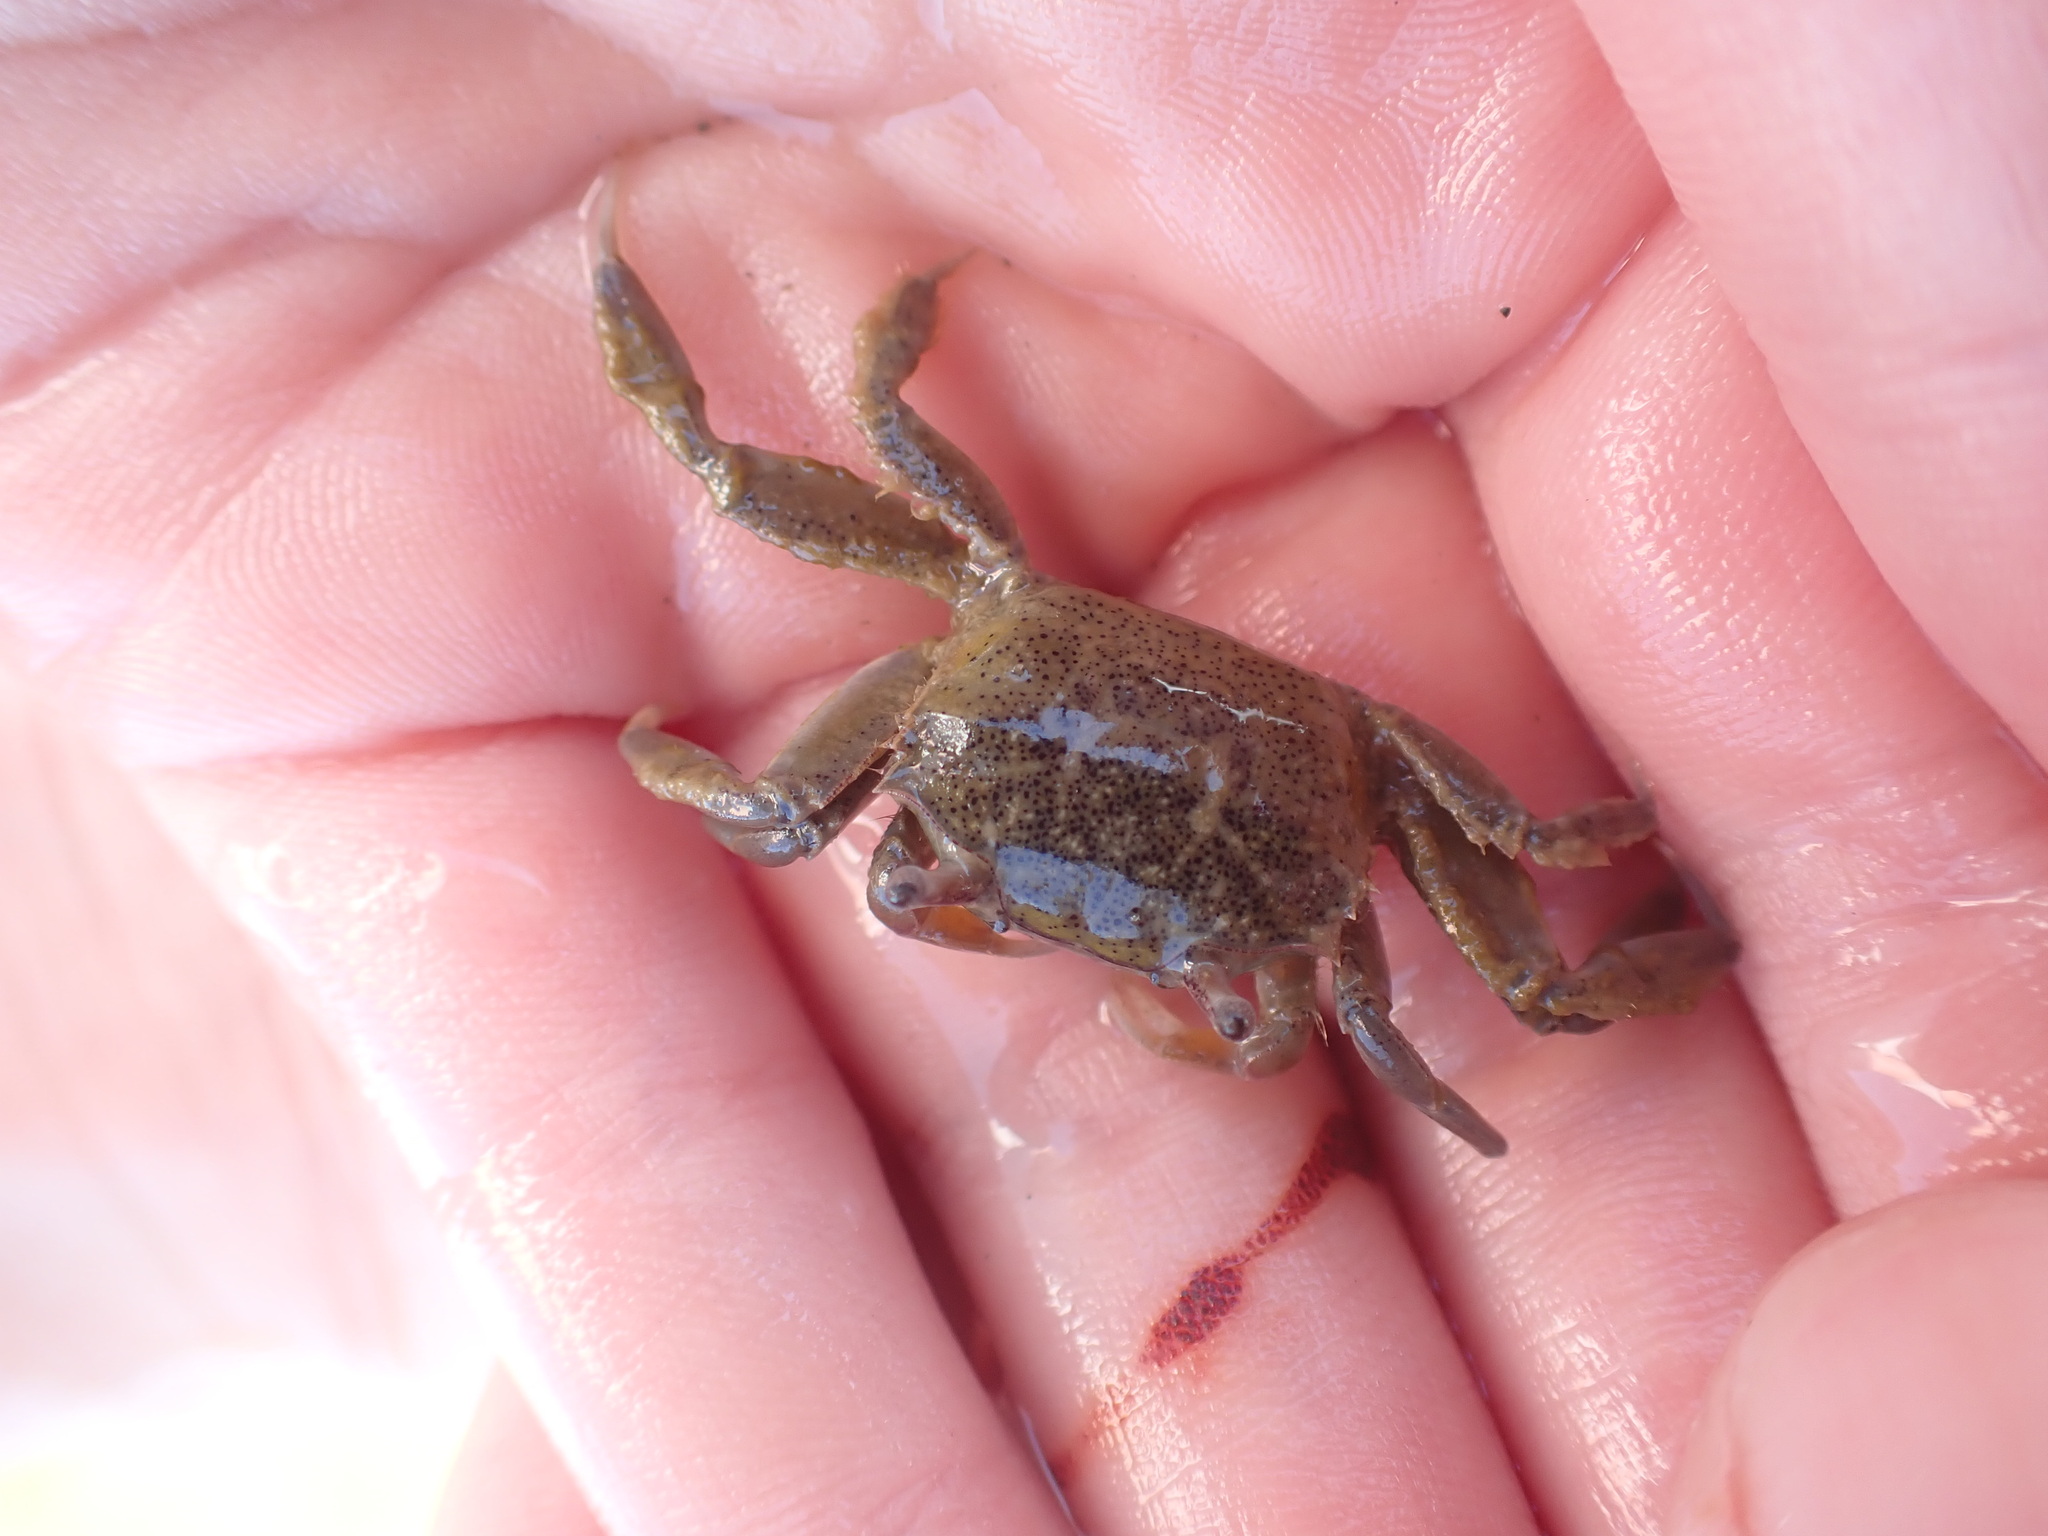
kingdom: Animalia
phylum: Arthropoda
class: Malacostraca
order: Decapoda
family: Macrophthalmidae
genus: Hemiplax
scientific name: Hemiplax hirtipes
